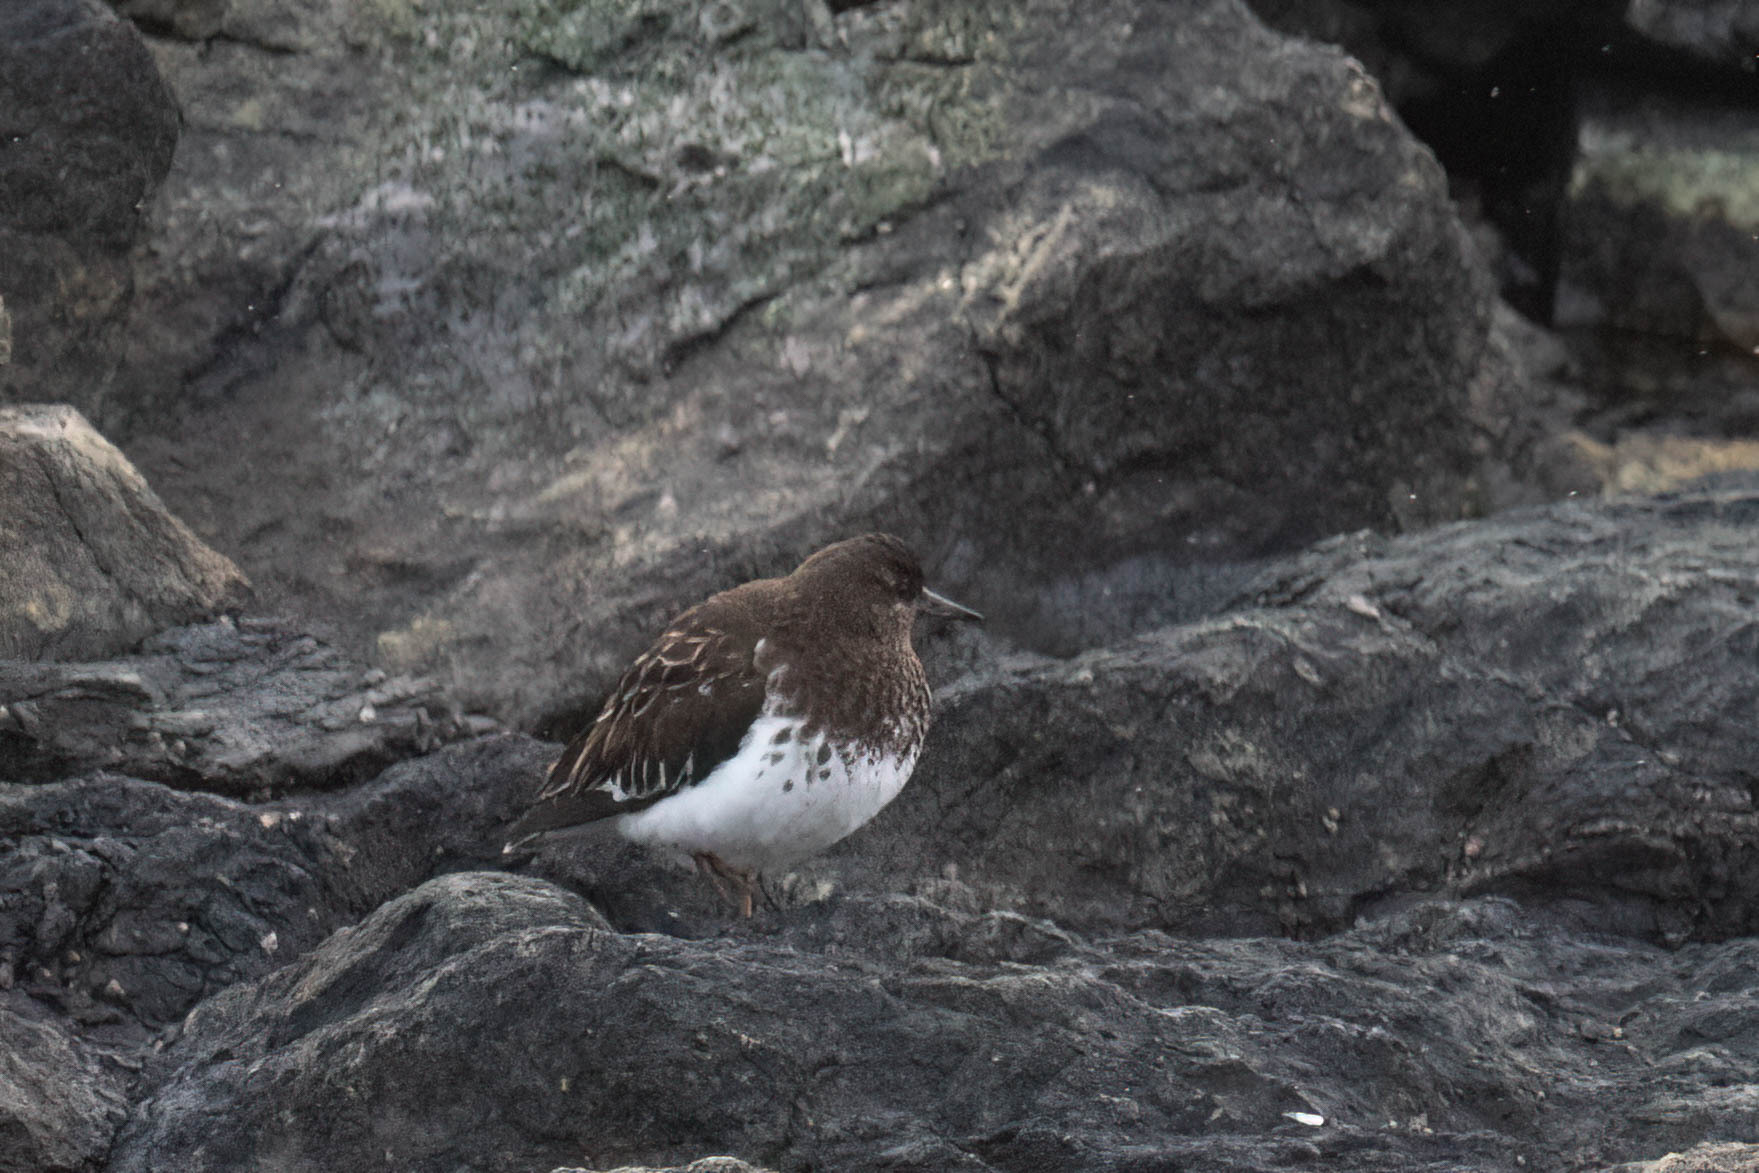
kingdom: Animalia
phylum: Chordata
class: Aves
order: Charadriiformes
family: Scolopacidae
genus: Arenaria
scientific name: Arenaria melanocephala
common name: Black turnstone
